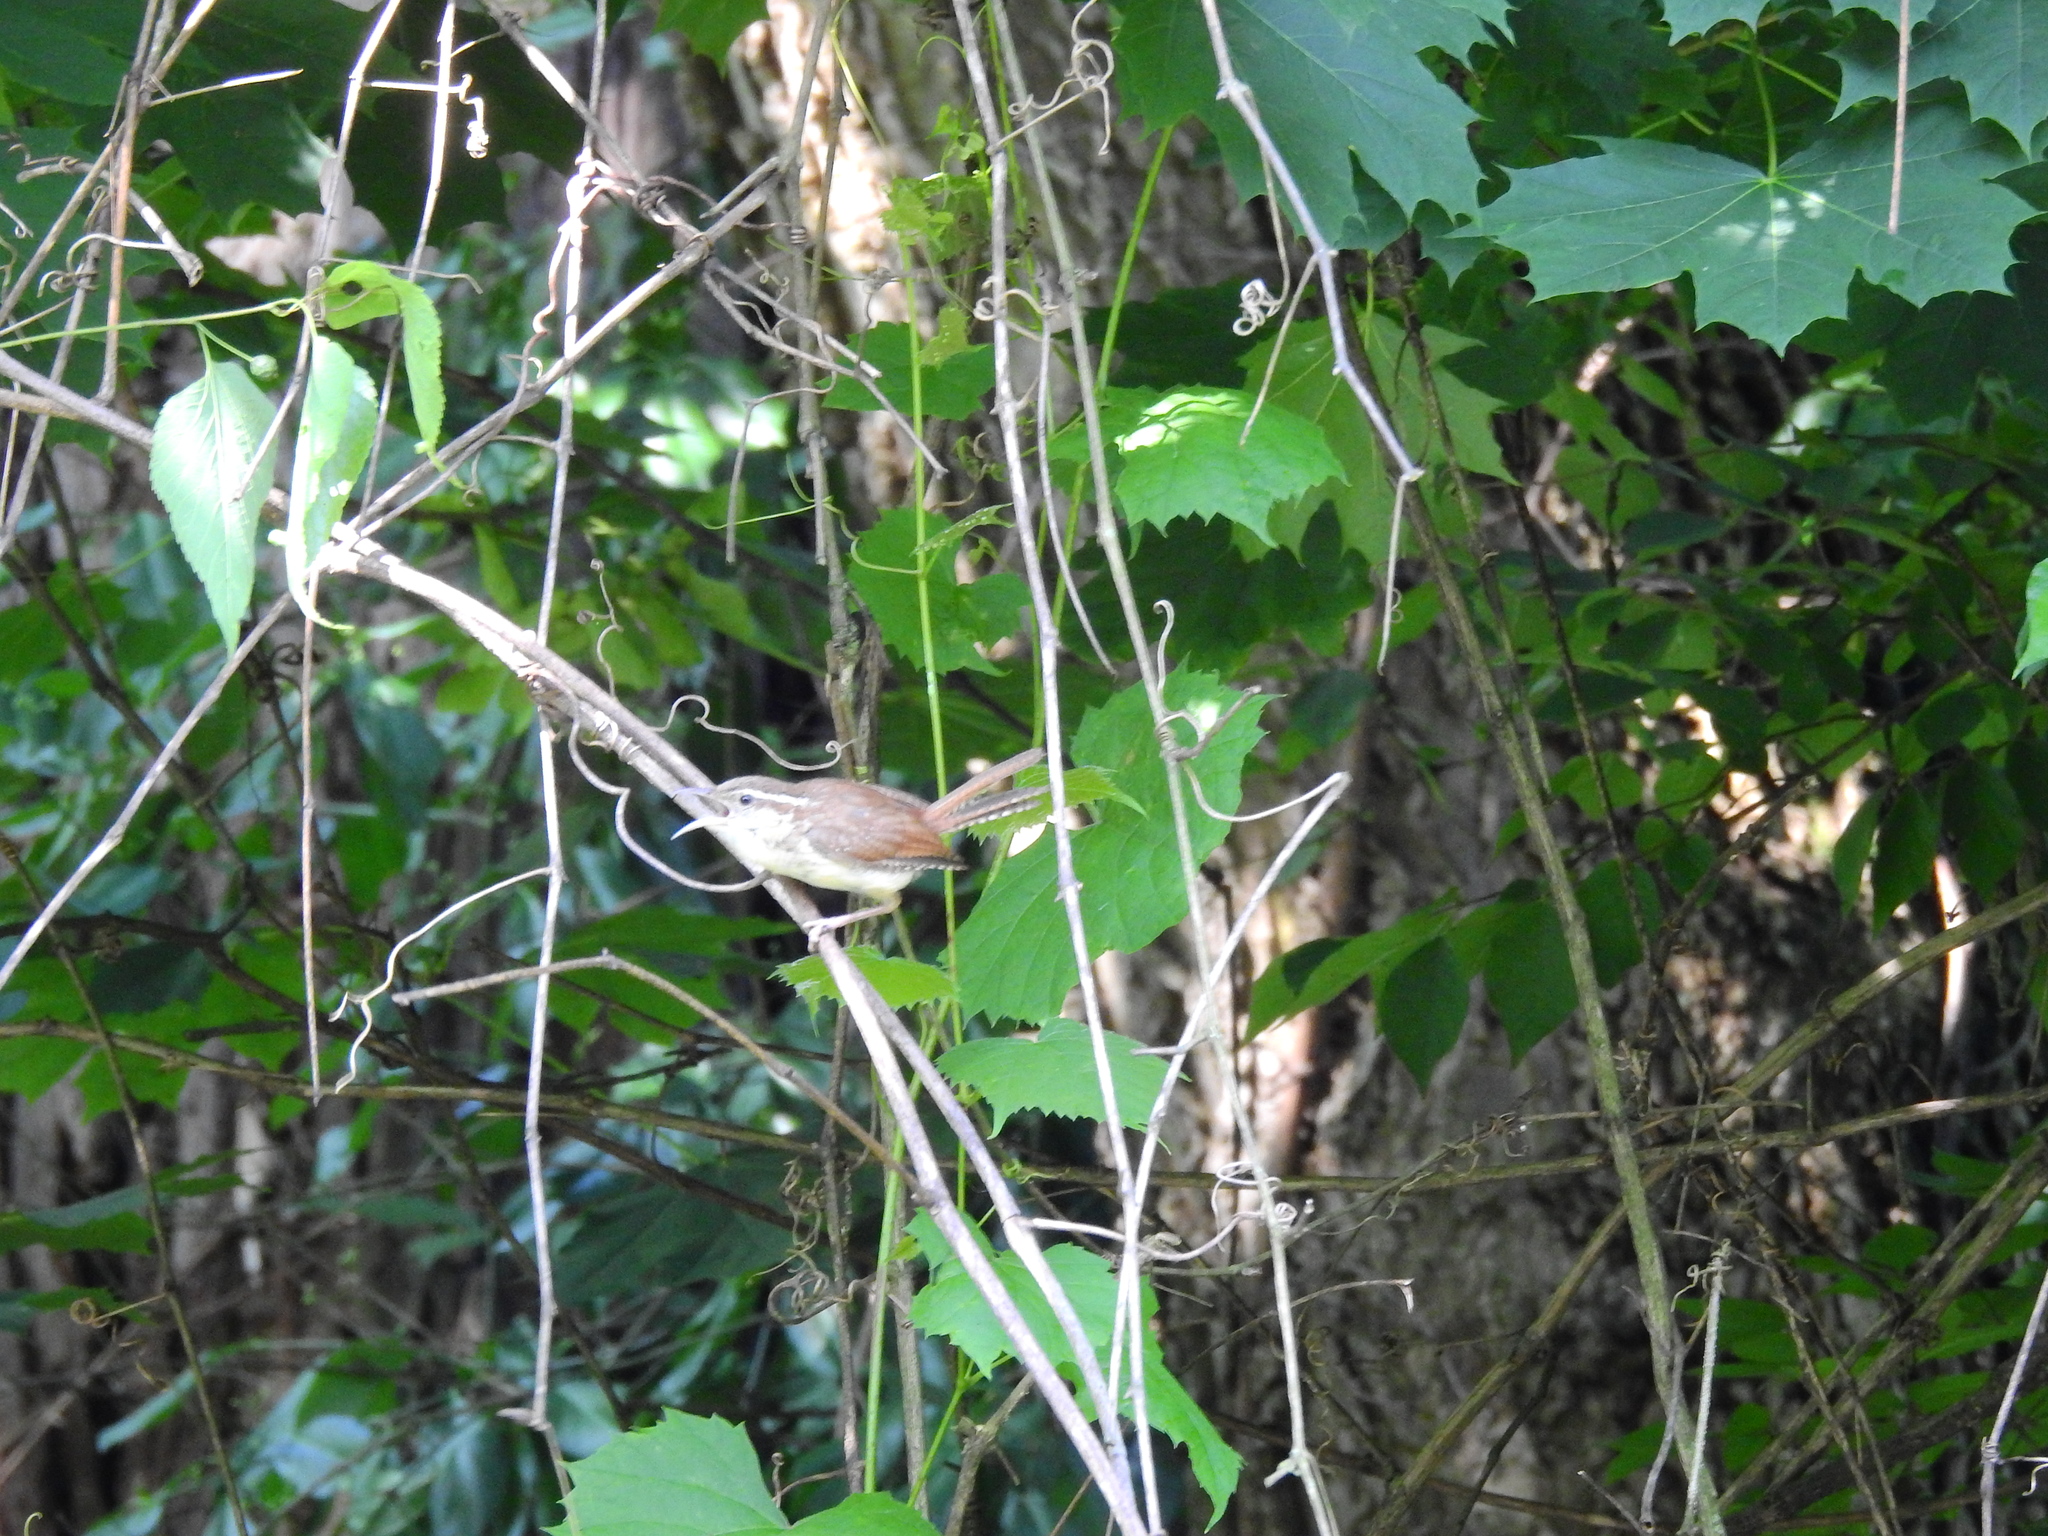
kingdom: Animalia
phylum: Chordata
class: Aves
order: Passeriformes
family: Troglodytidae
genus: Thryothorus
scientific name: Thryothorus ludovicianus
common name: Carolina wren
